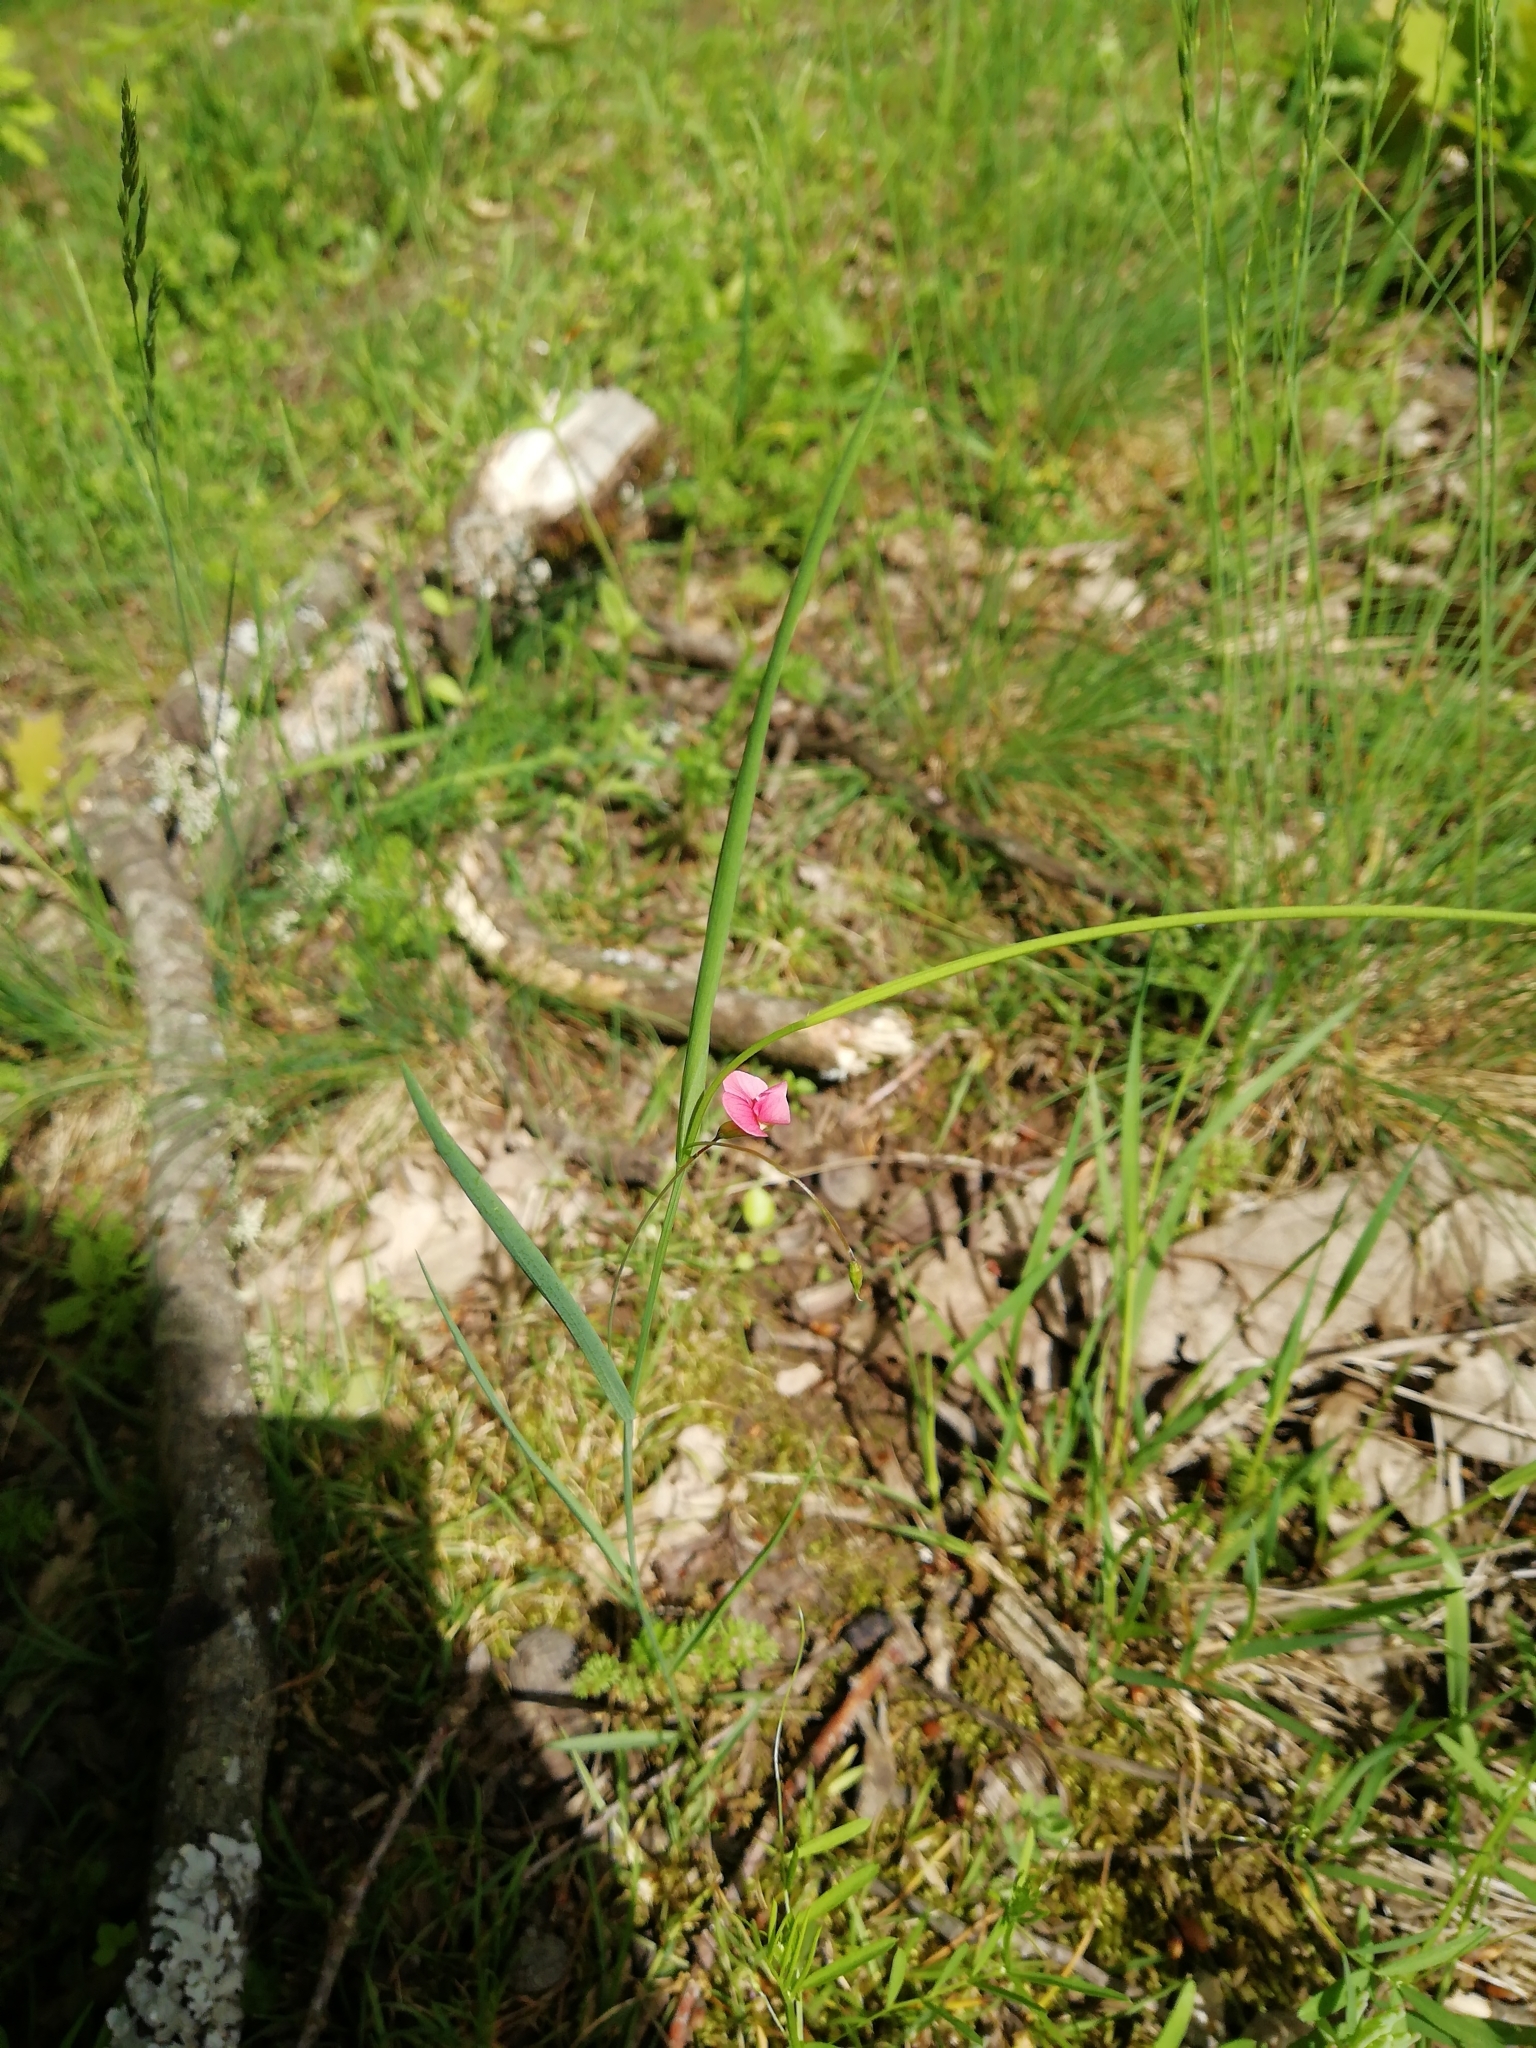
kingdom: Plantae
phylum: Tracheophyta
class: Magnoliopsida
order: Fabales
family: Fabaceae
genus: Lathyrus
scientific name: Lathyrus nissolia
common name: Grass vetchling
